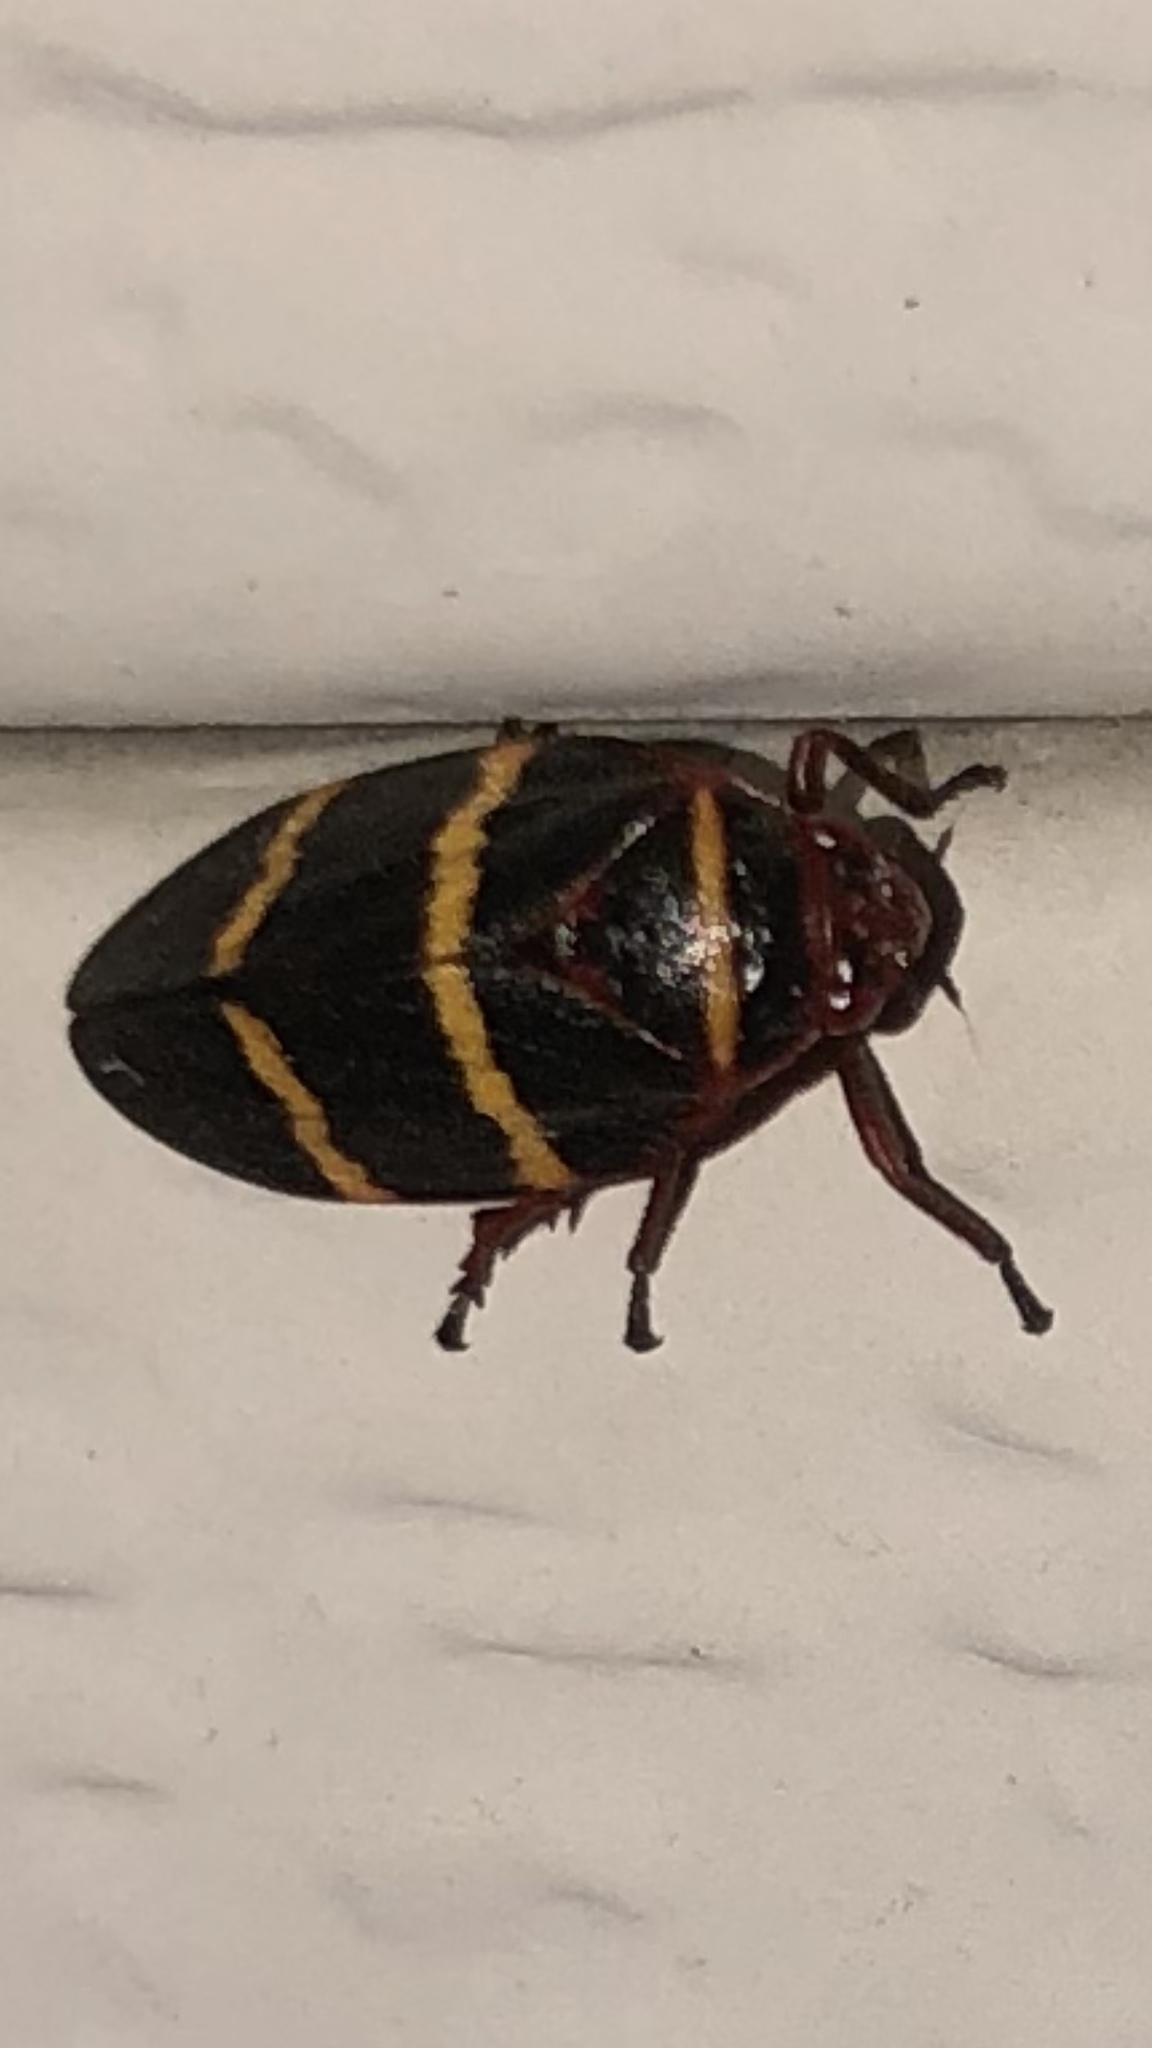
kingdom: Animalia
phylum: Arthropoda
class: Insecta
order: Hemiptera
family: Cercopidae
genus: Prosapia
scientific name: Prosapia bicincta
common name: Twolined spittlebug
